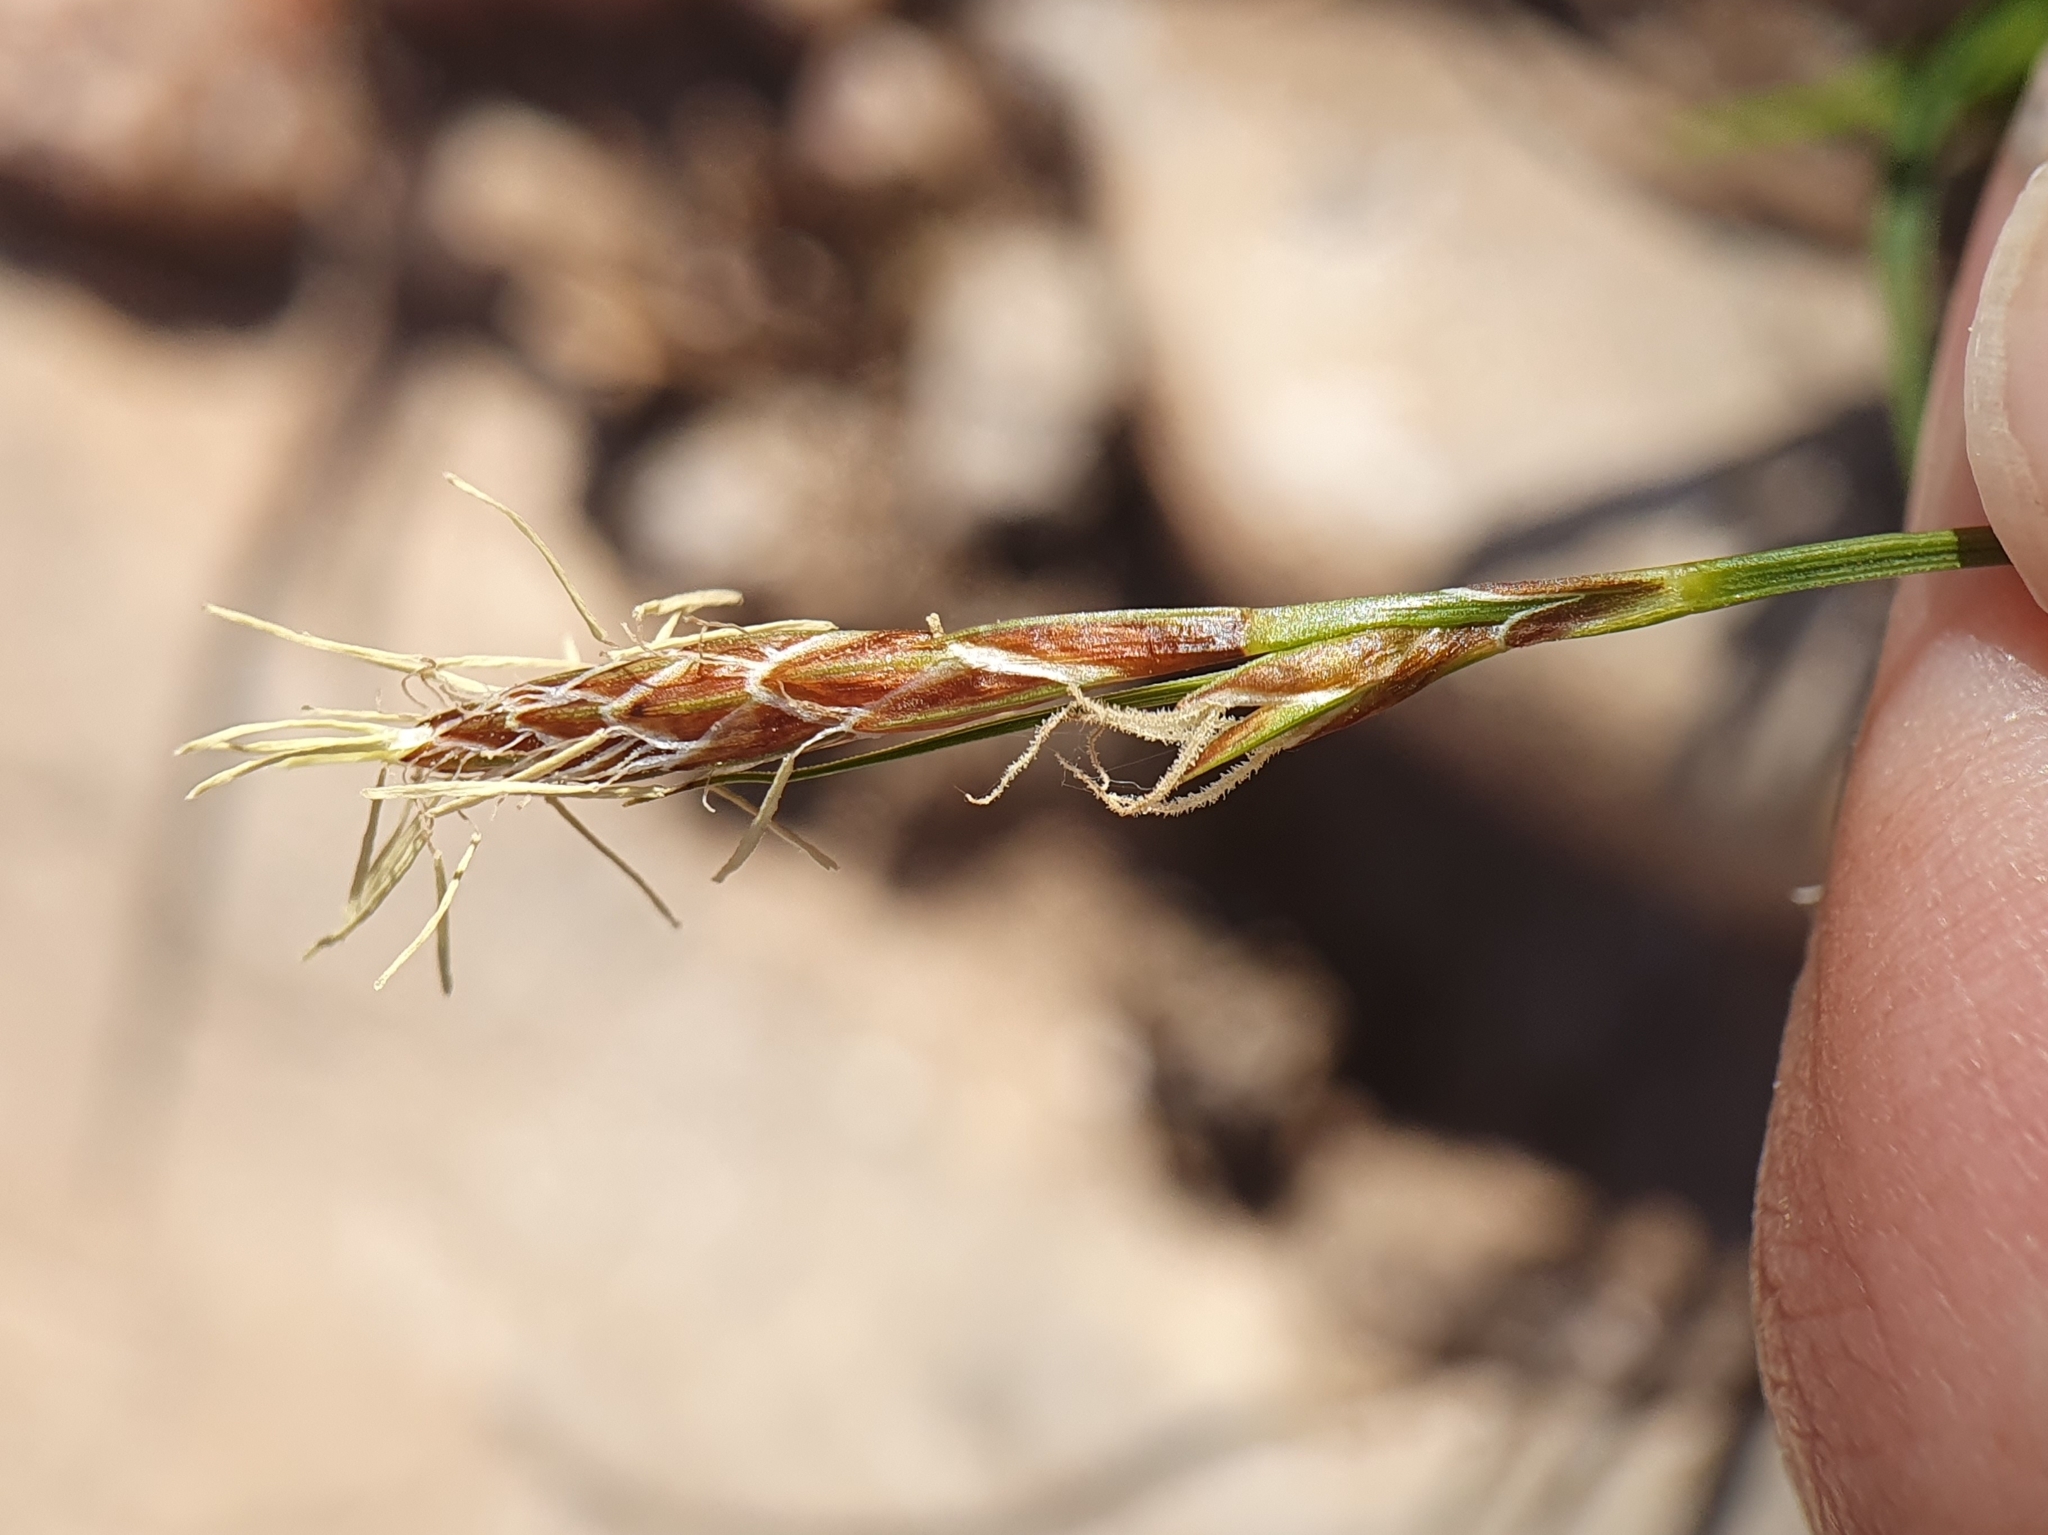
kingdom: Plantae
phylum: Tracheophyta
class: Liliopsida
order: Poales
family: Cyperaceae
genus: Carex
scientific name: Carex halleriana
